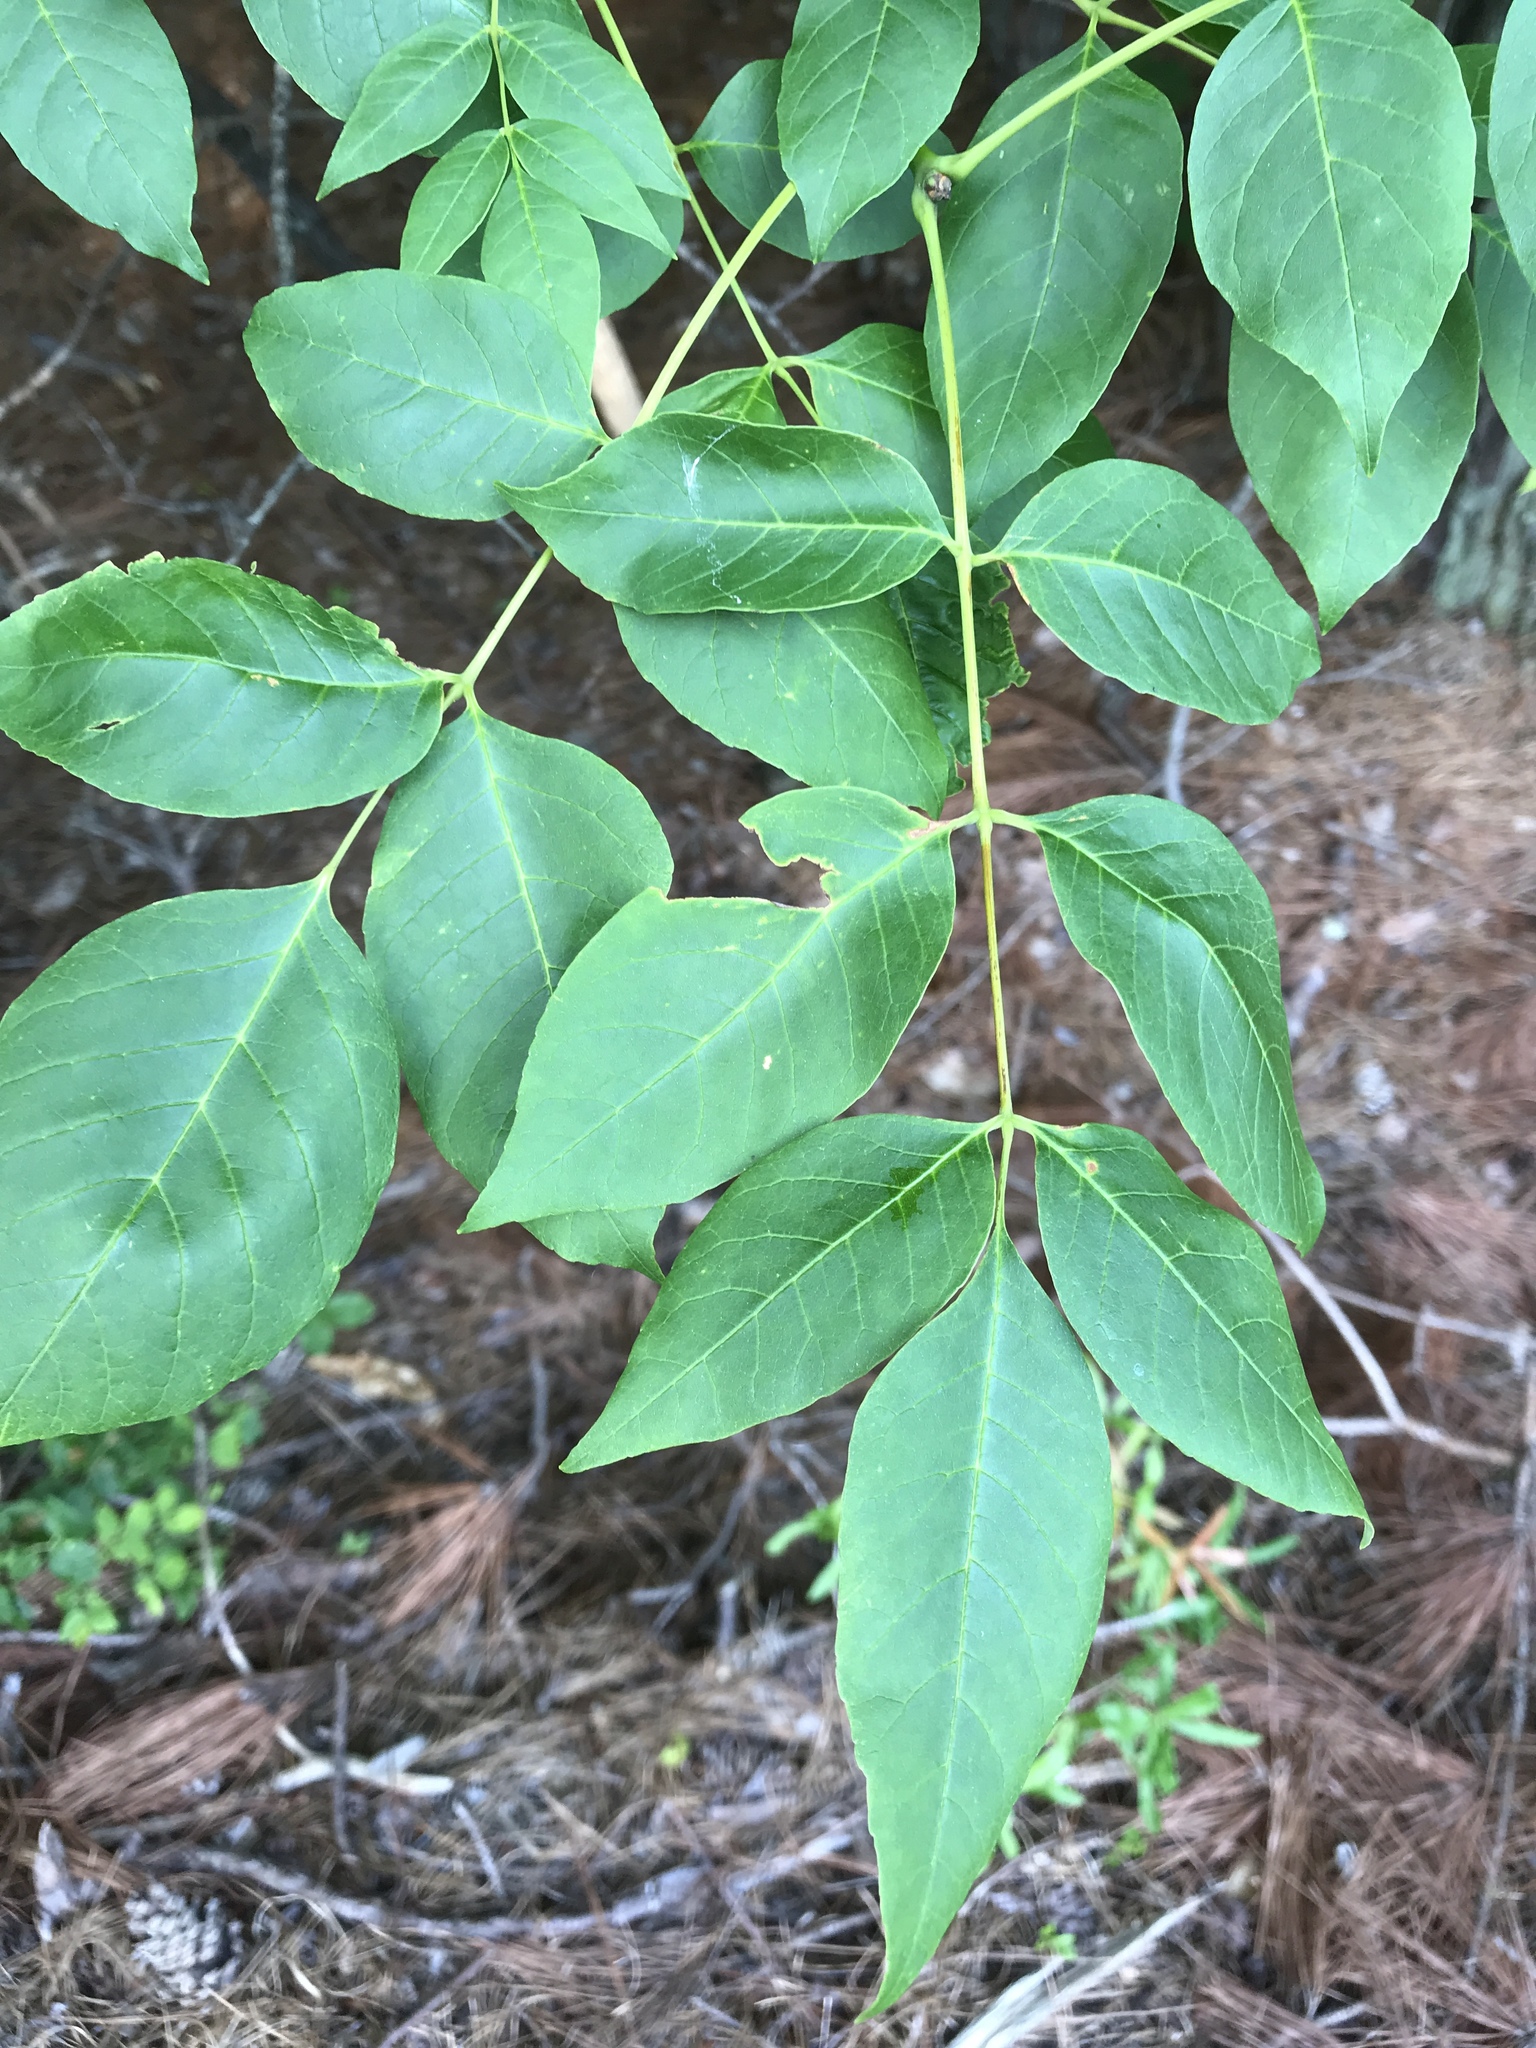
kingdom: Plantae
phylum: Tracheophyta
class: Magnoliopsida
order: Lamiales
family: Oleaceae
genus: Fraxinus
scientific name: Fraxinus americana
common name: White ash
